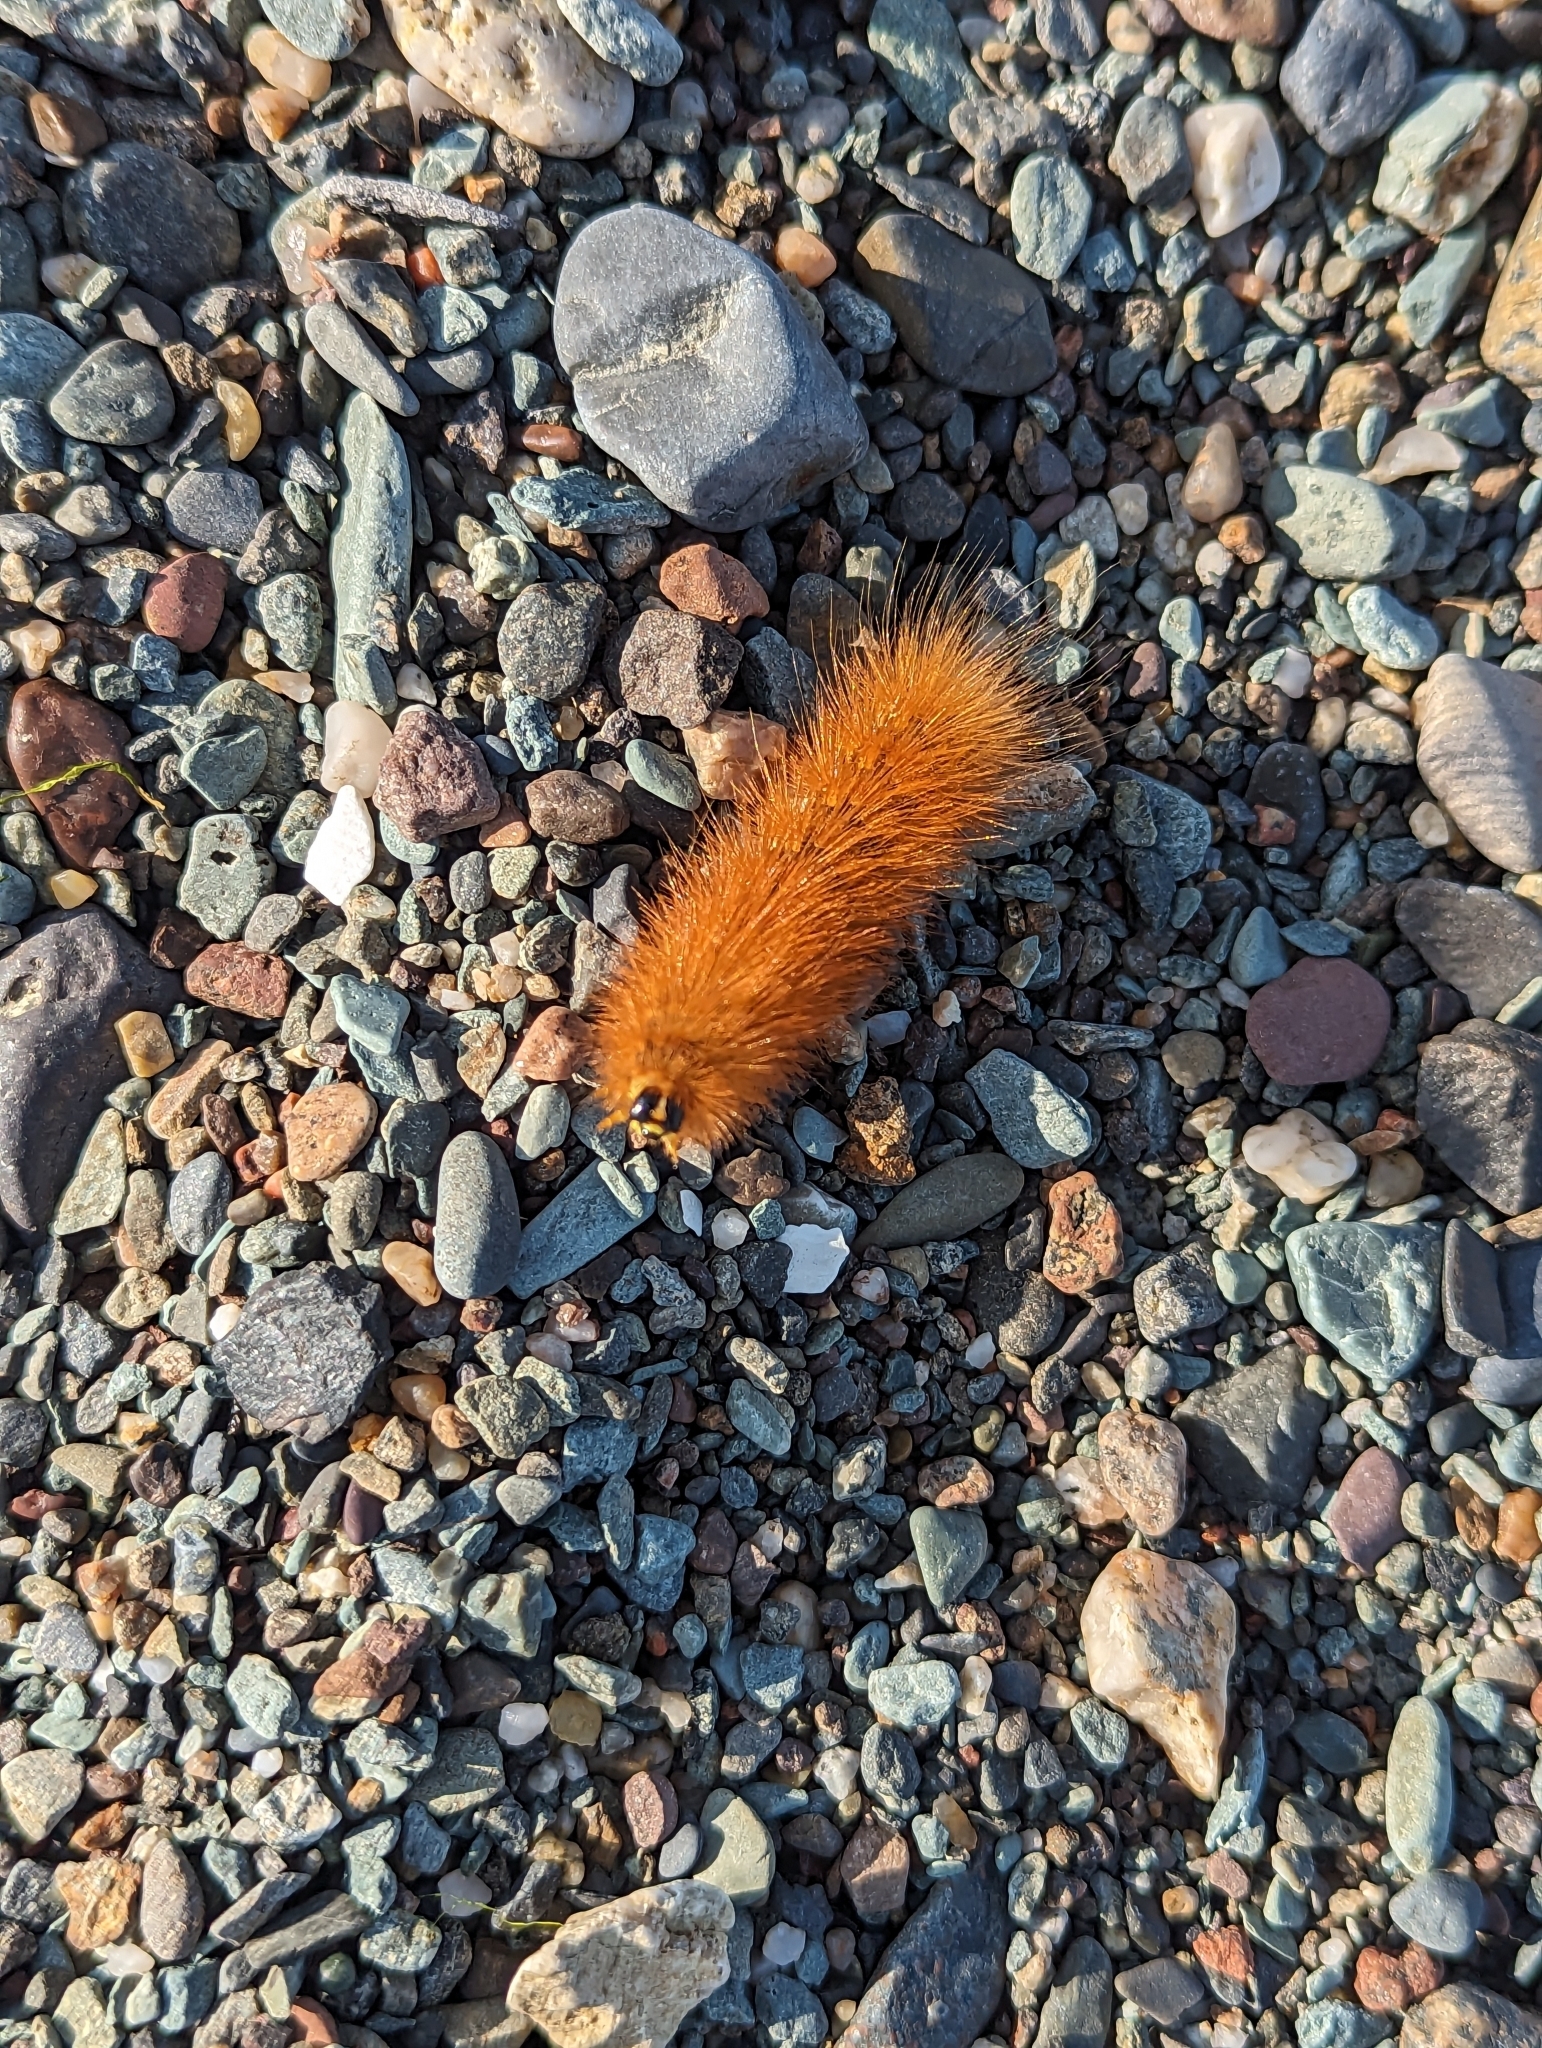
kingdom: Animalia
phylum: Arthropoda
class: Insecta
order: Lepidoptera
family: Erebidae
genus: Estigmene
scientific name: Estigmene acrea
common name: Salt marsh moth
